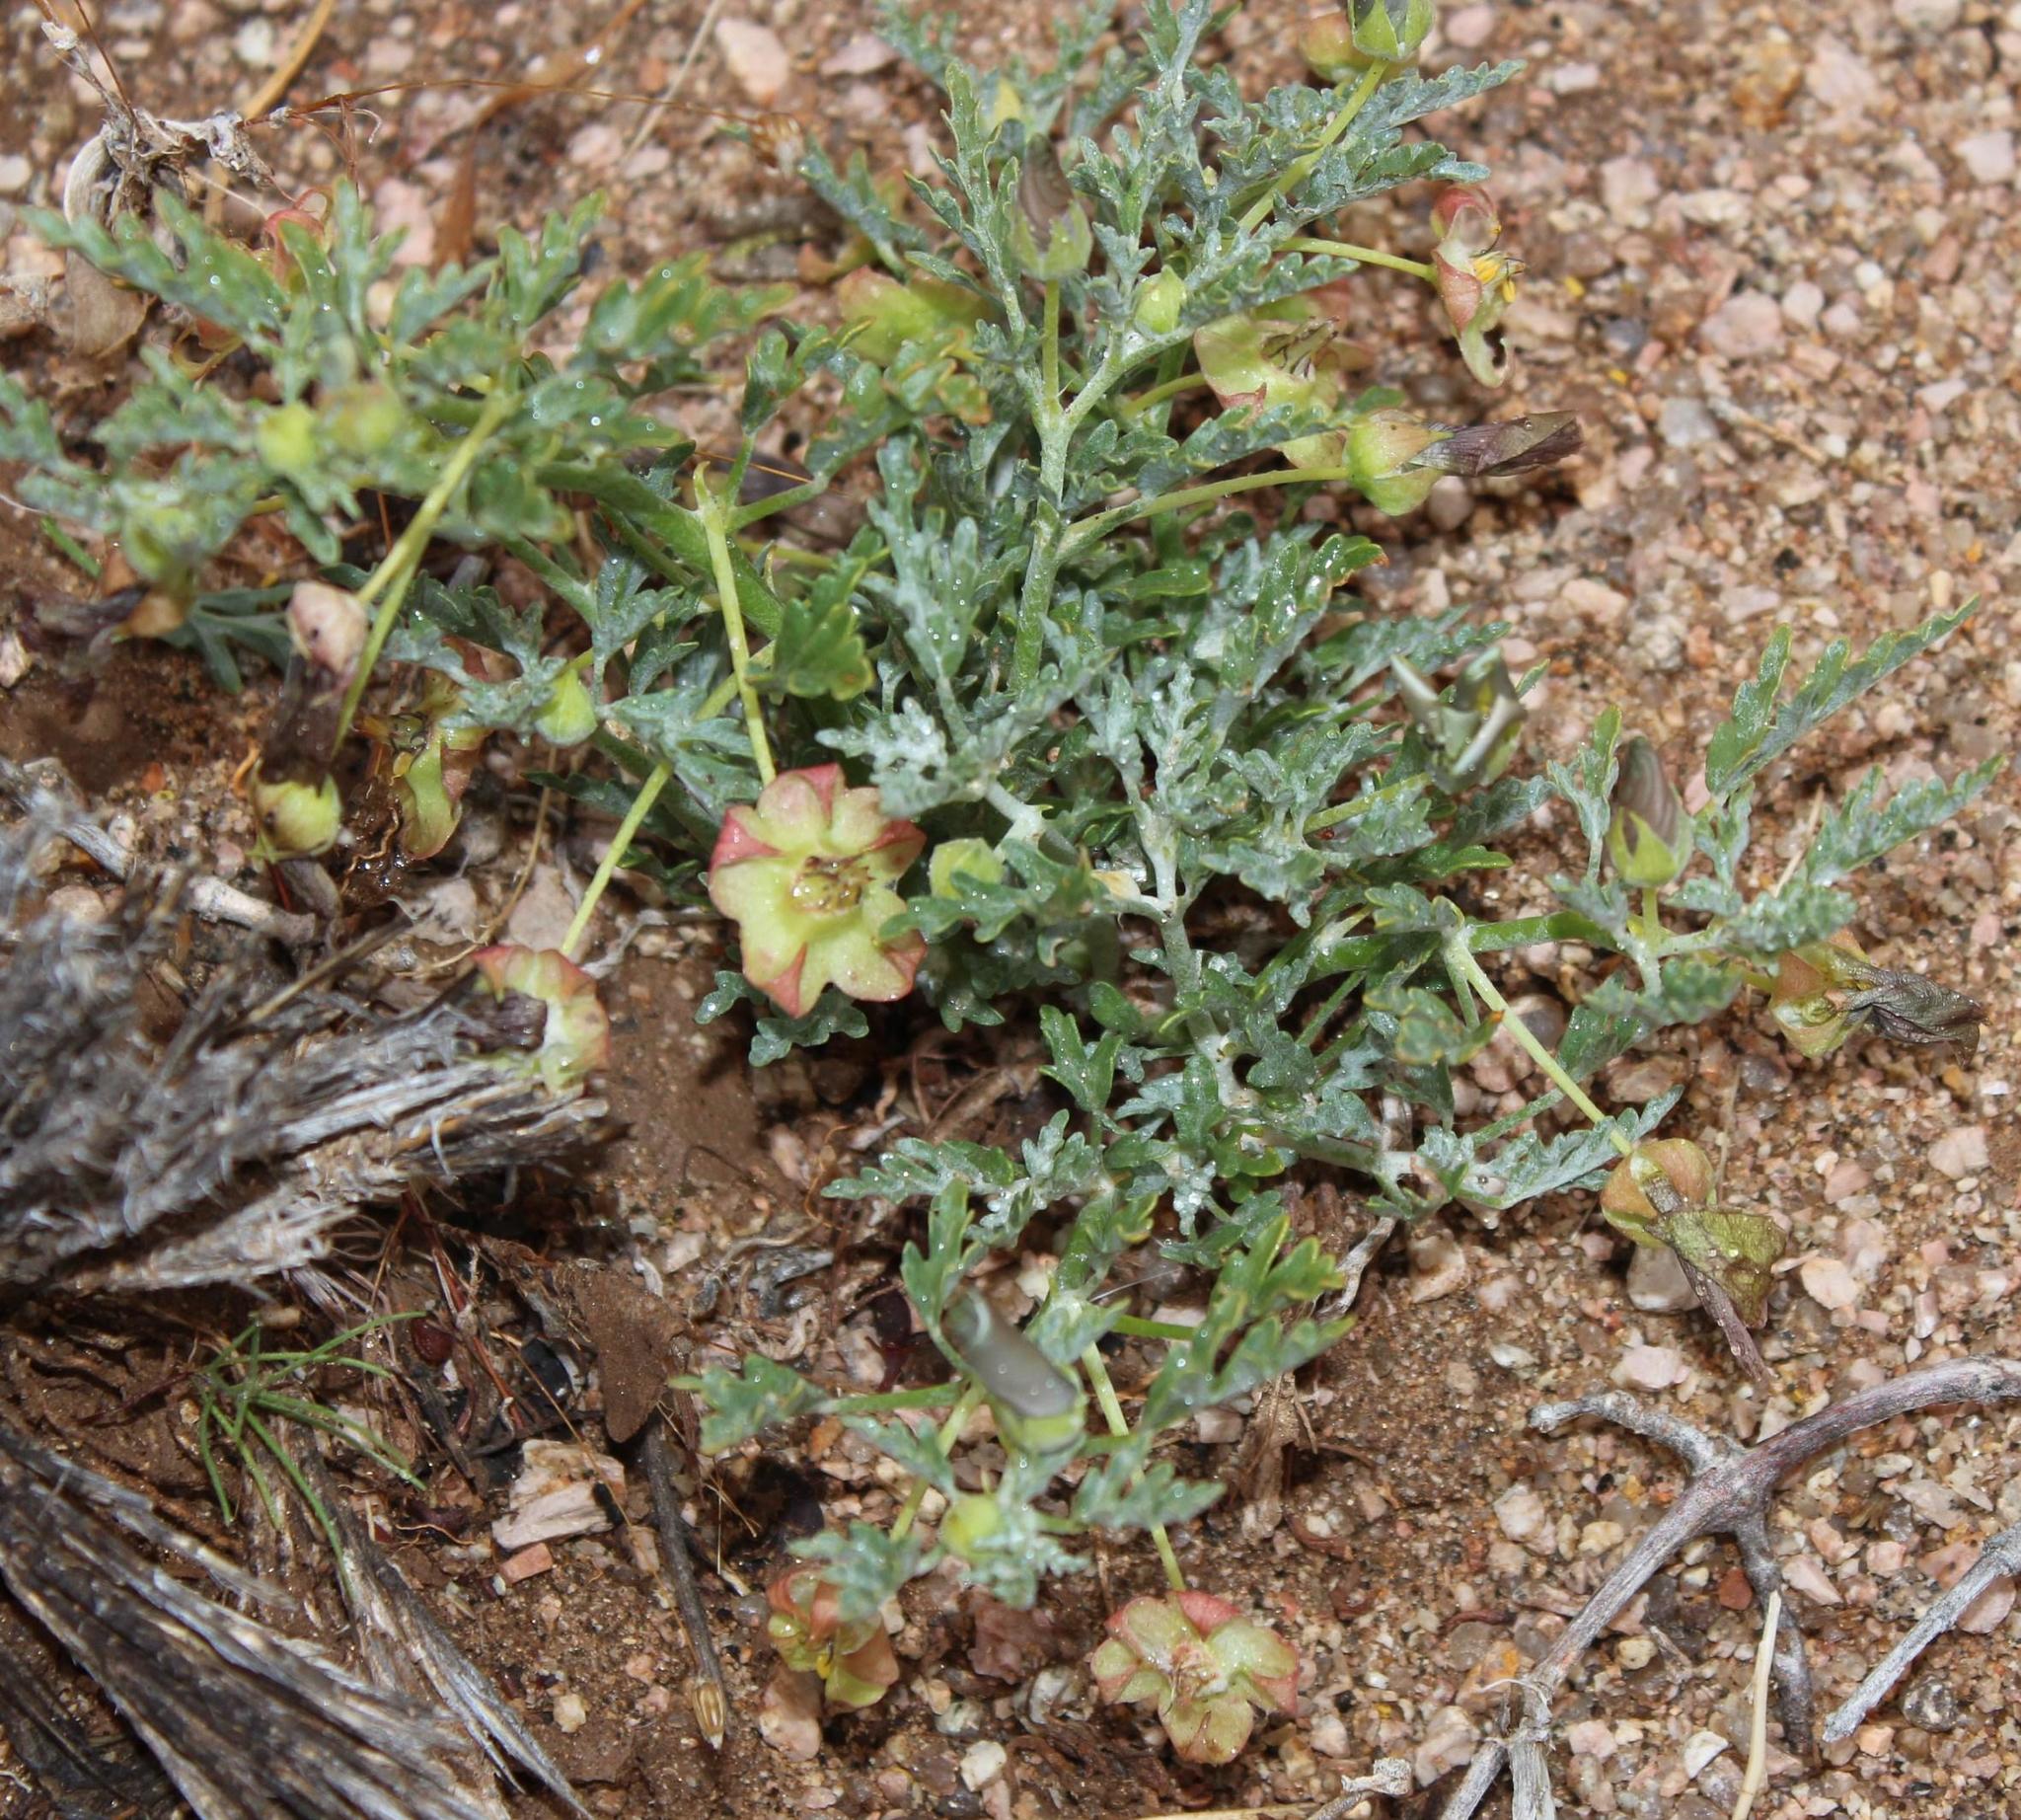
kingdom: Plantae
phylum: Tracheophyta
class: Magnoliopsida
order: Malvales
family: Neuradaceae
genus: Grielum
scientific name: Grielum sinuatum
